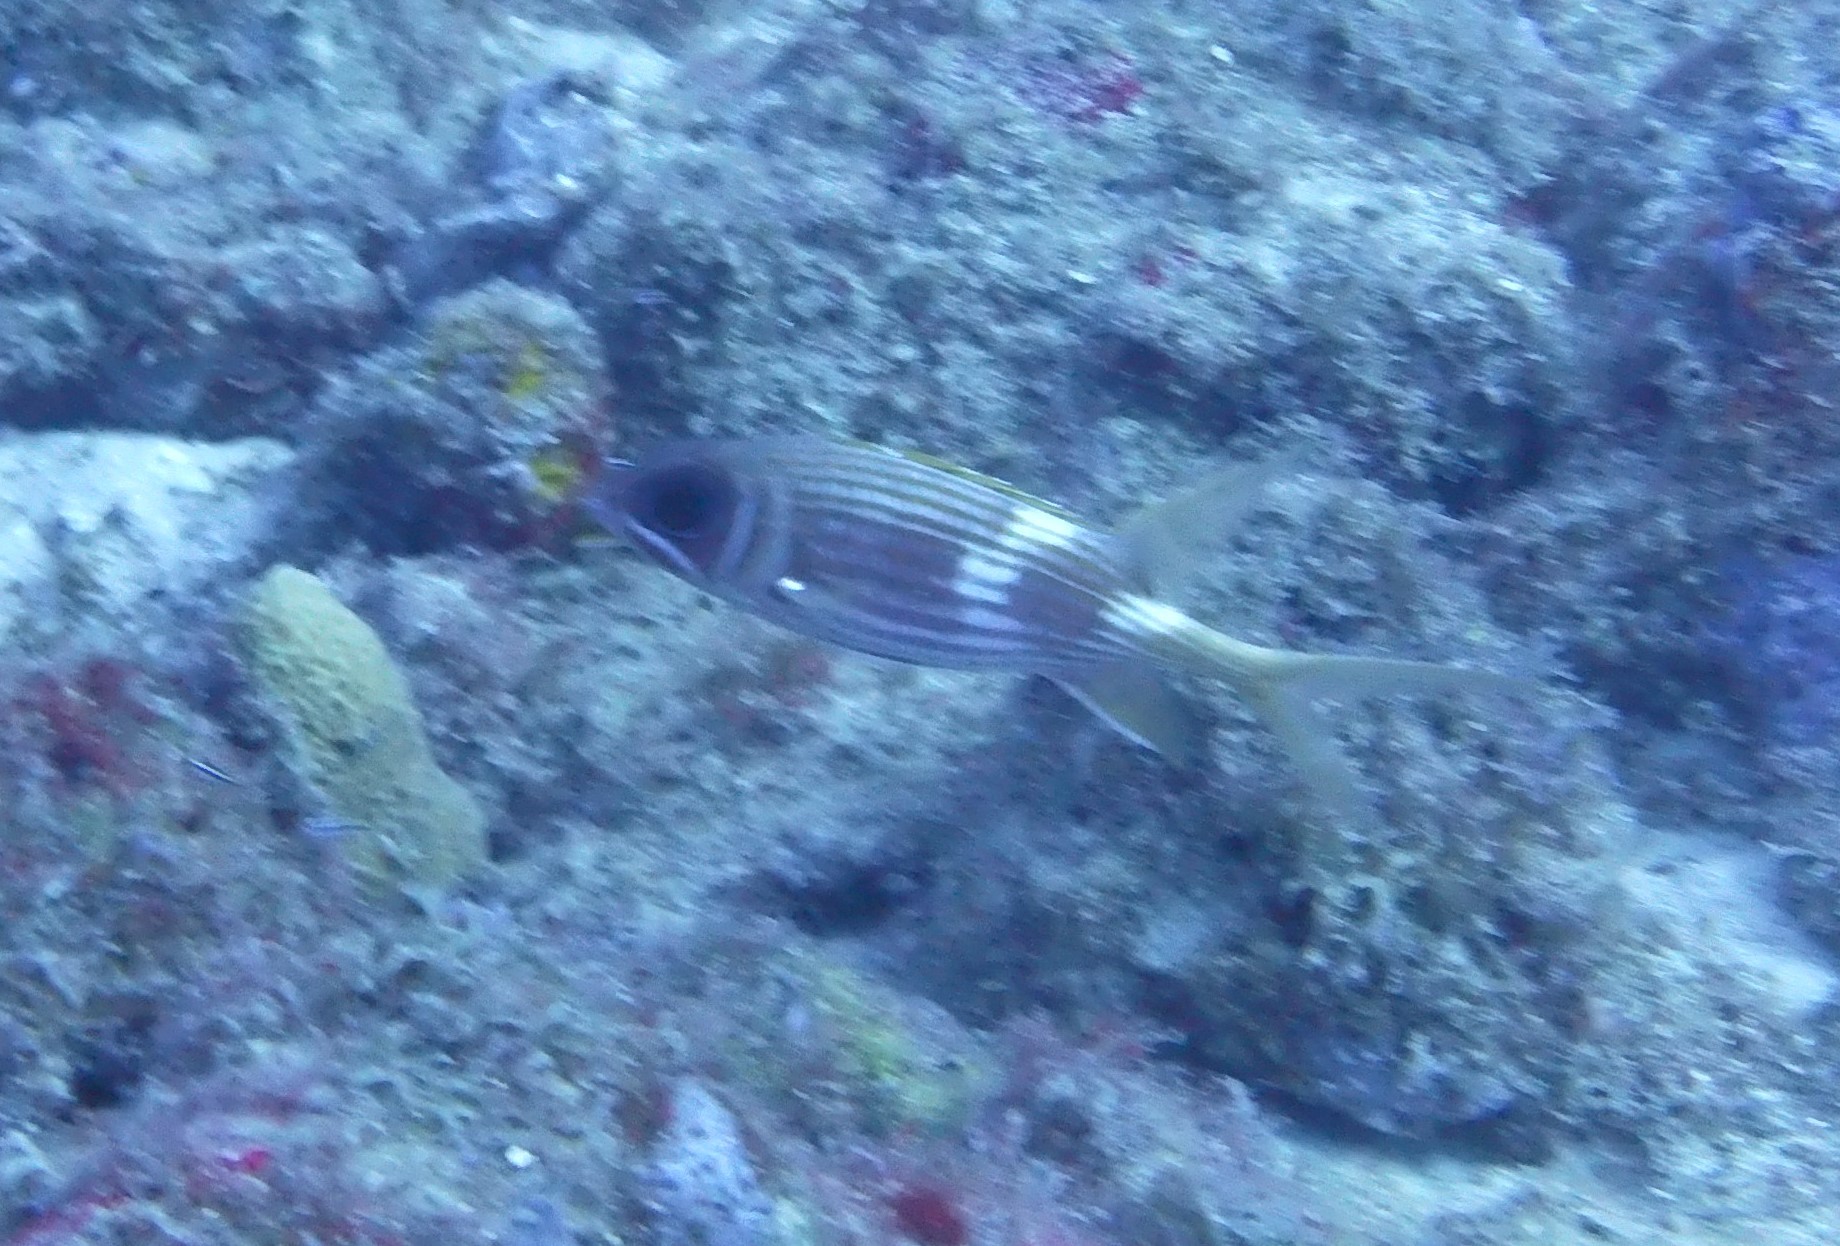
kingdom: Animalia
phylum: Chordata
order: Beryciformes
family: Holocentridae
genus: Holocentrus
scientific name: Holocentrus rufus
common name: Longspine squirrelfish
